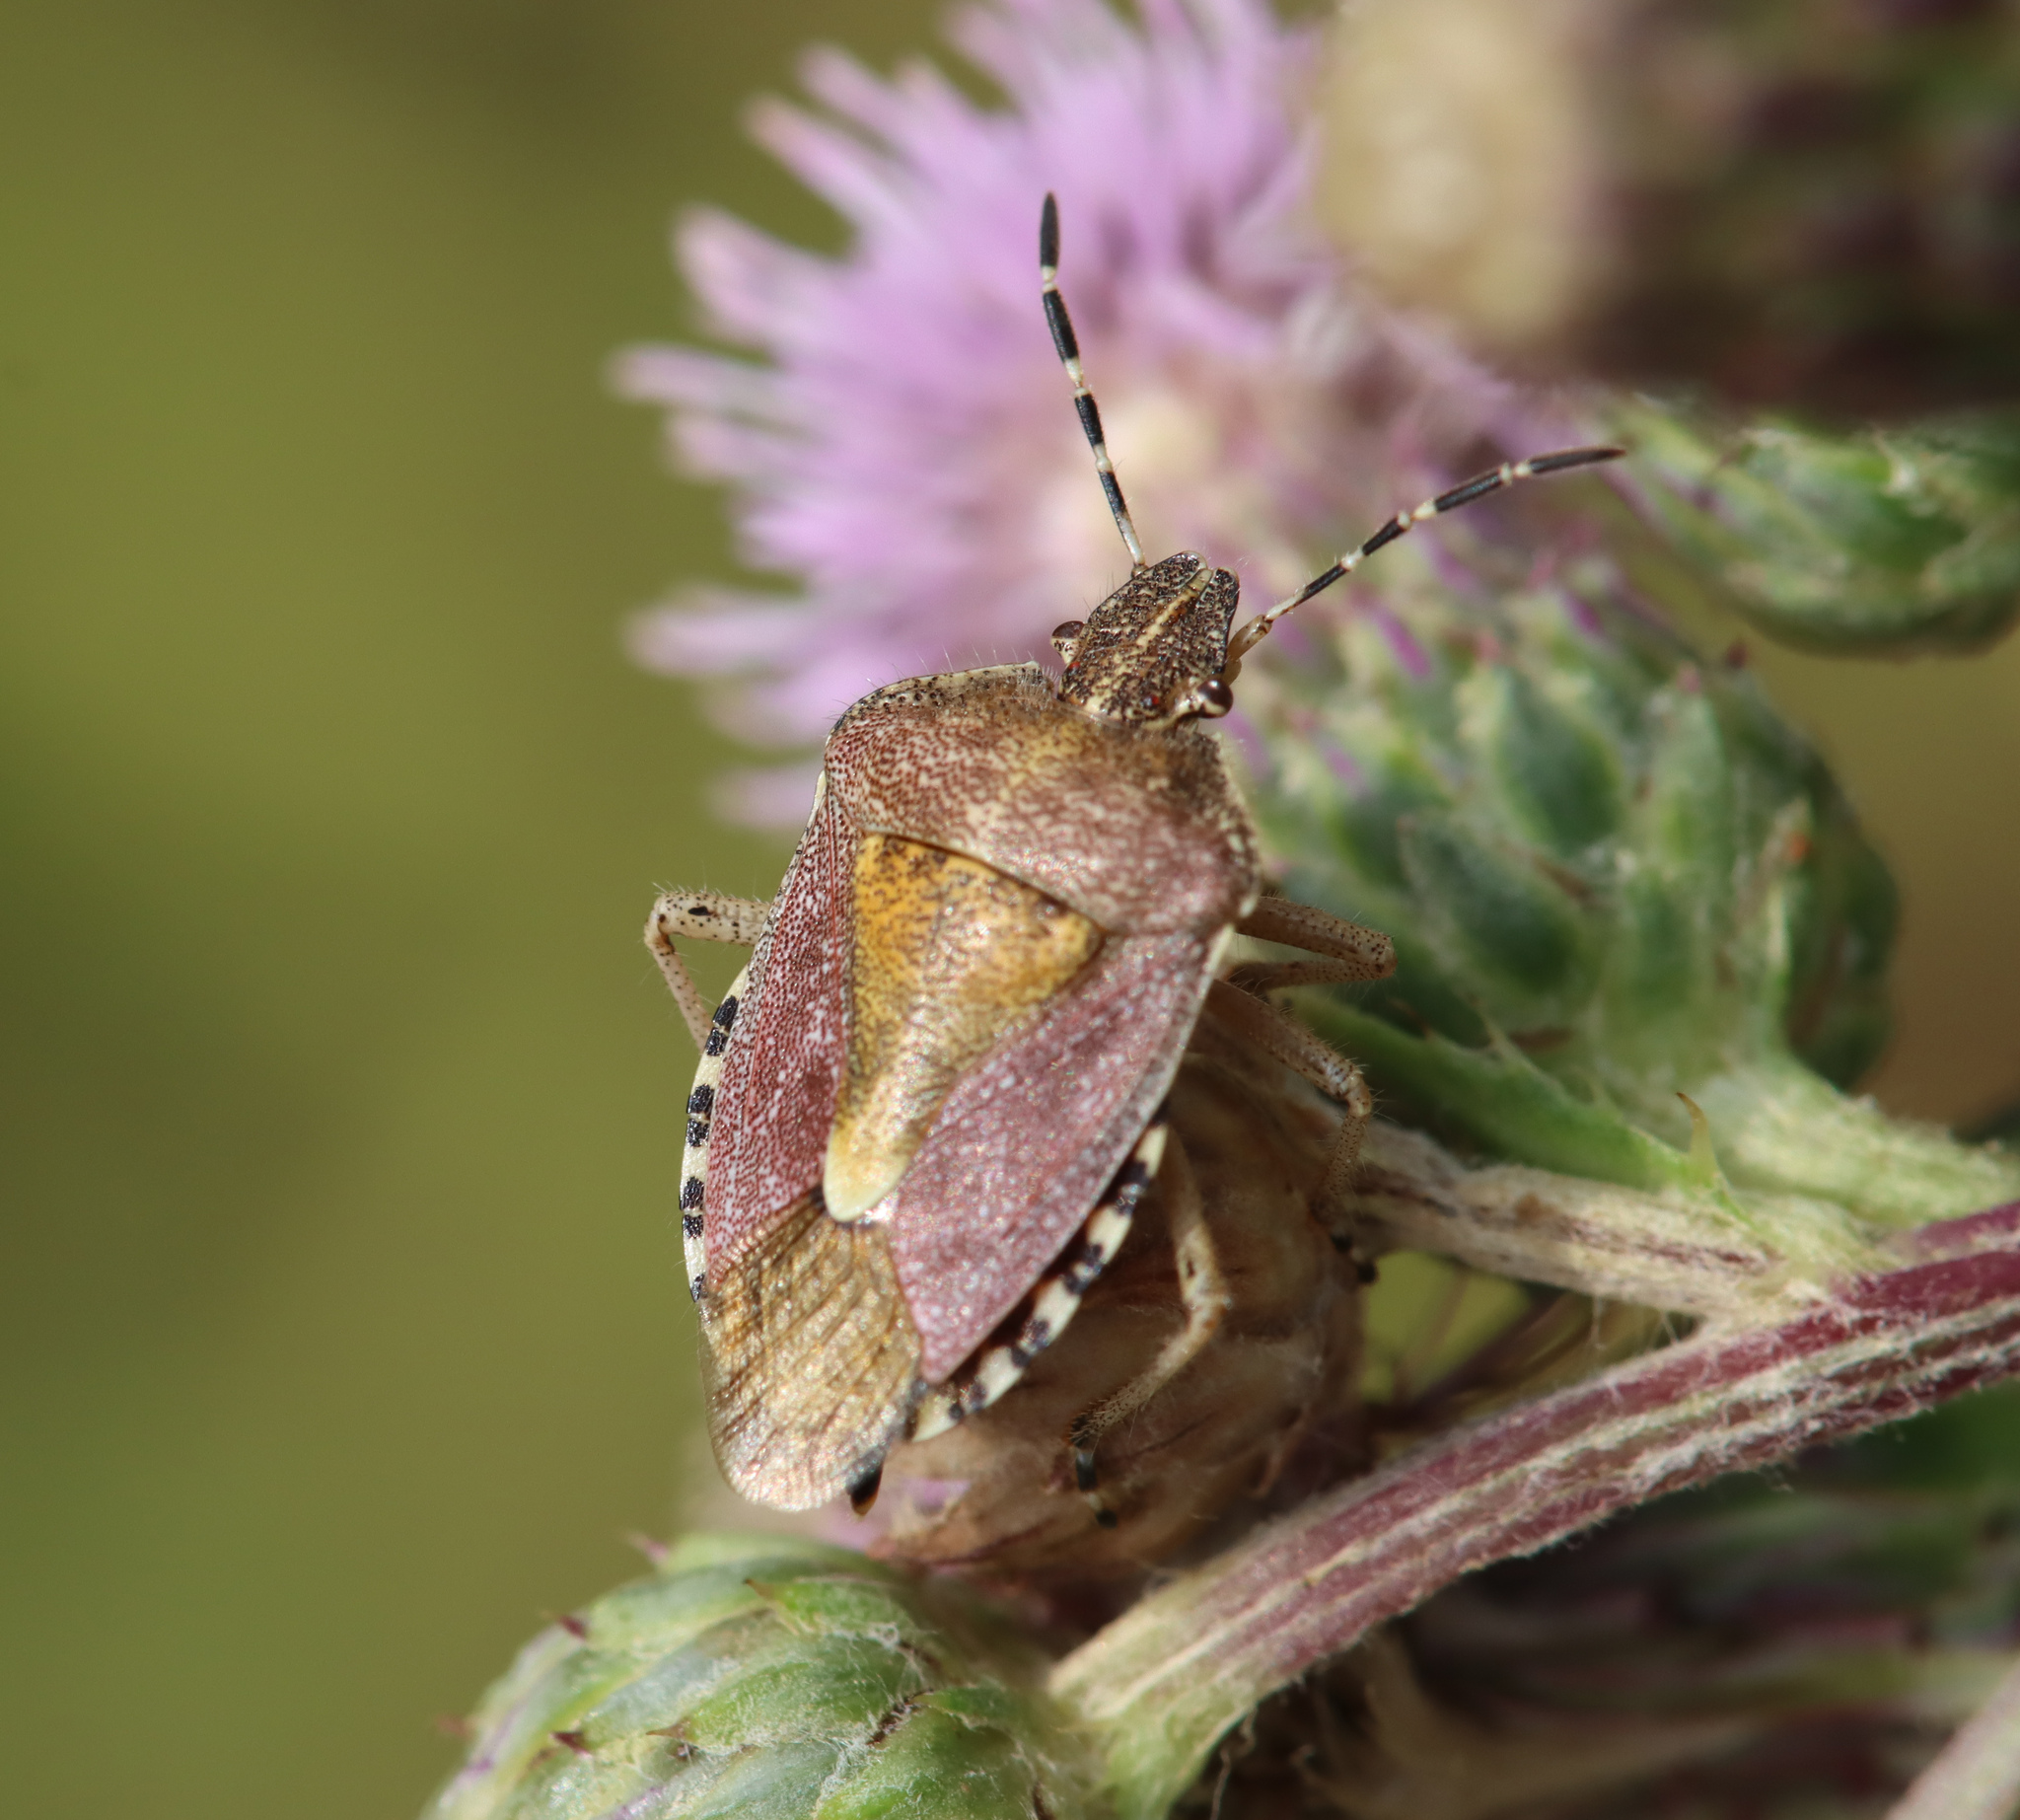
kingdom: Animalia
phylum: Arthropoda
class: Insecta
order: Hemiptera
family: Pentatomidae
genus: Dolycoris
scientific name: Dolycoris baccarum
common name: Sloe bug
